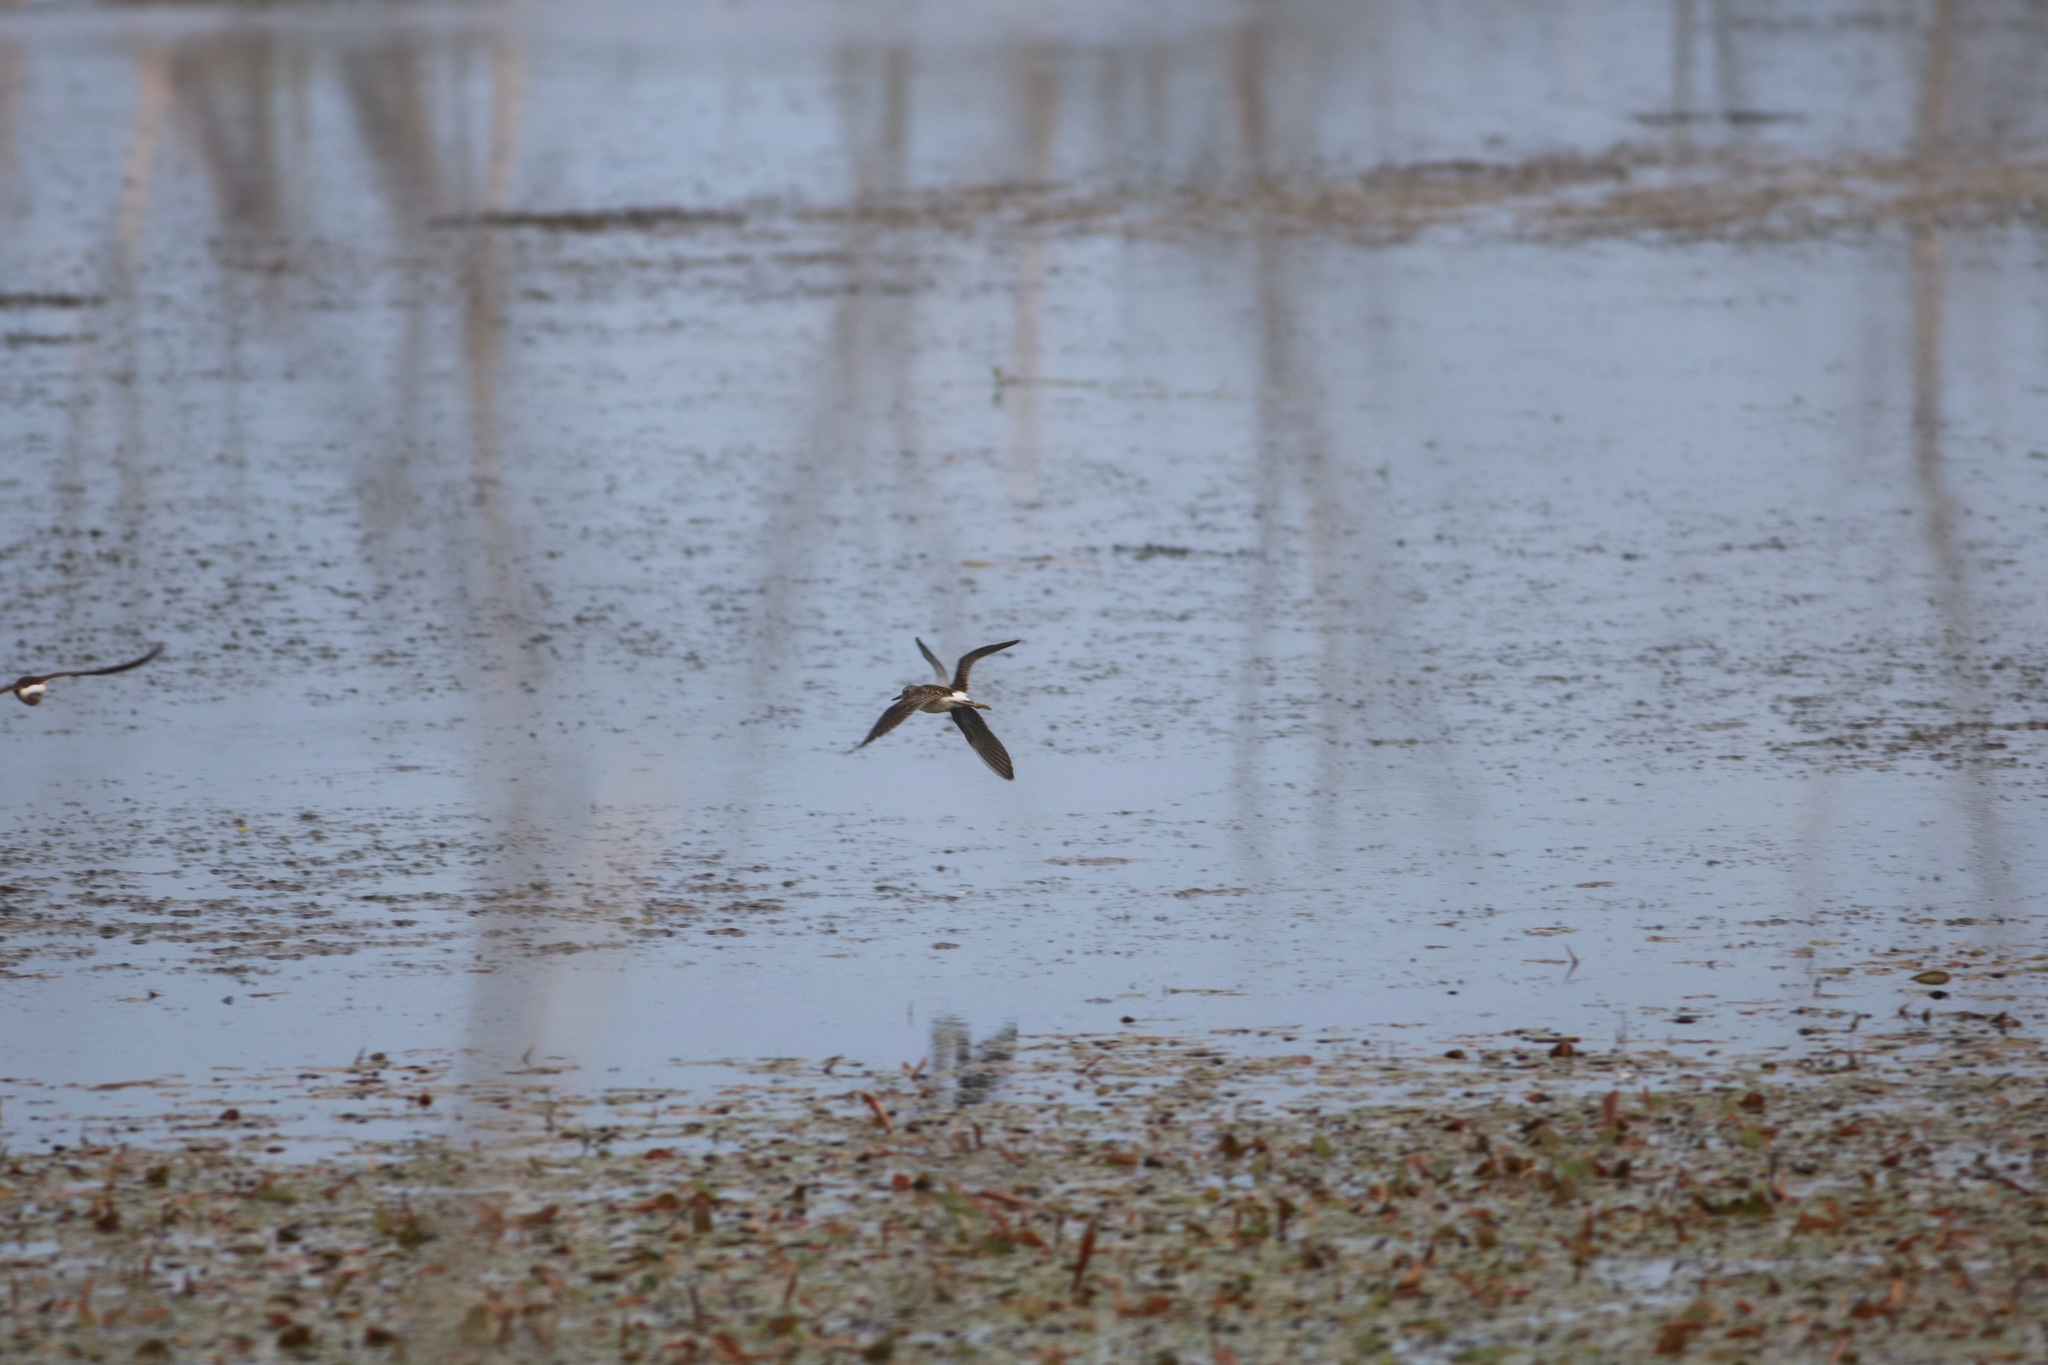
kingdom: Animalia
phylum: Chordata
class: Aves
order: Charadriiformes
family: Scolopacidae
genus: Tringa
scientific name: Tringa glareola
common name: Wood sandpiper
